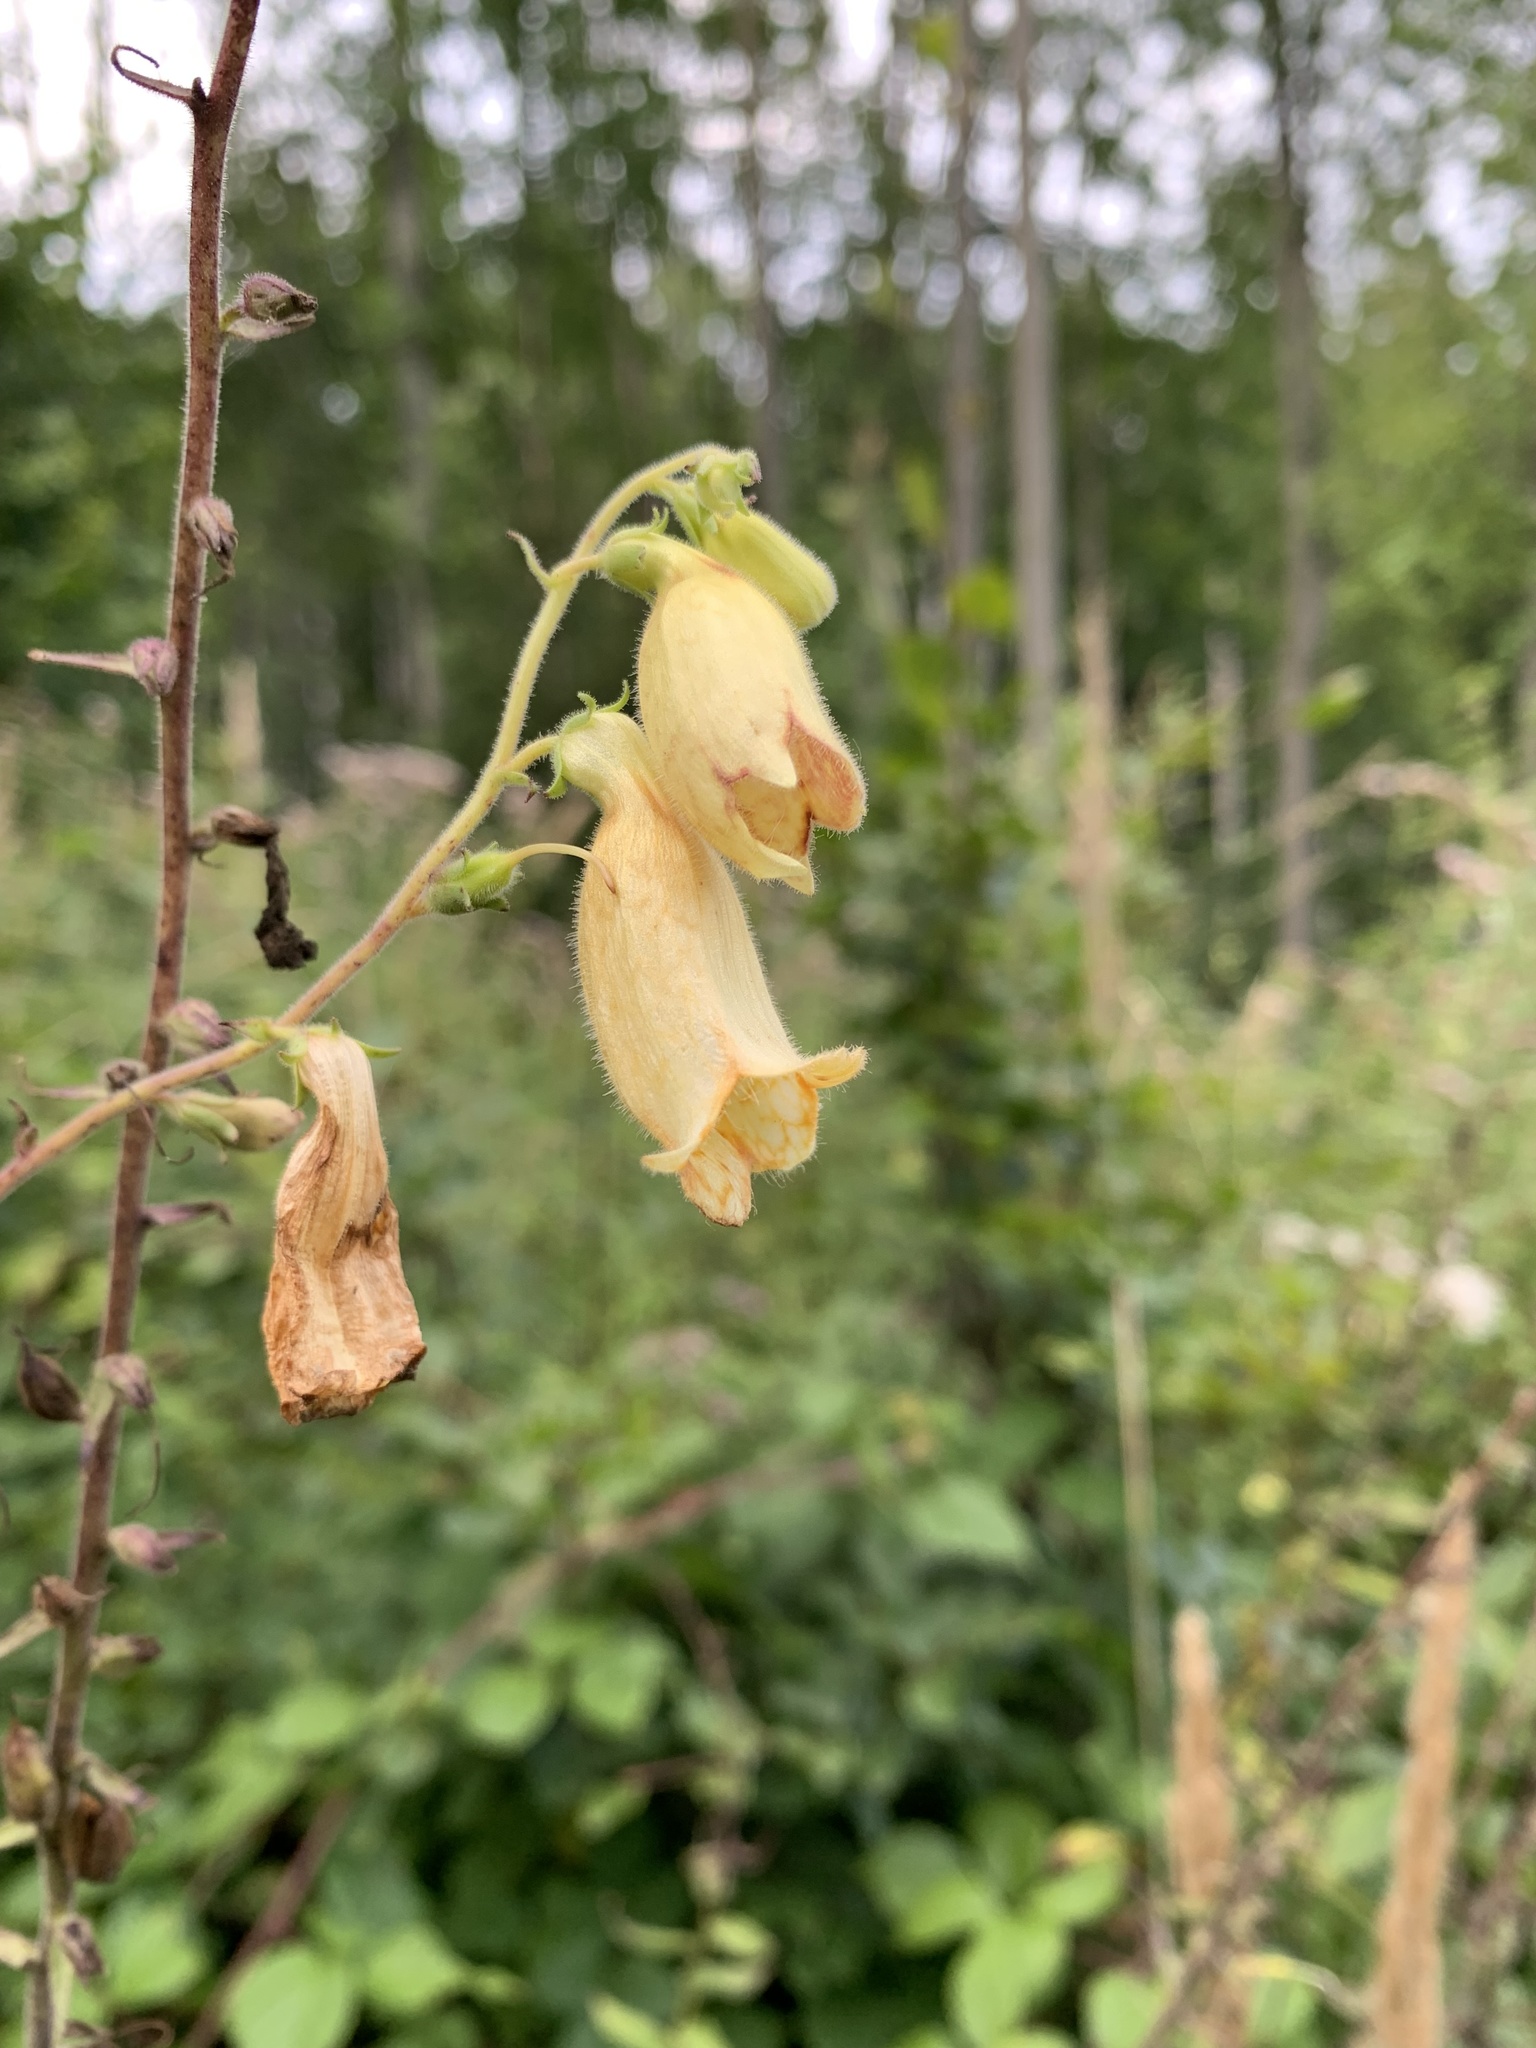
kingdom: Plantae
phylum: Tracheophyta
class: Magnoliopsida
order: Lamiales
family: Plantaginaceae
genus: Digitalis
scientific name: Digitalis grandiflora
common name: Yellow foxglove
